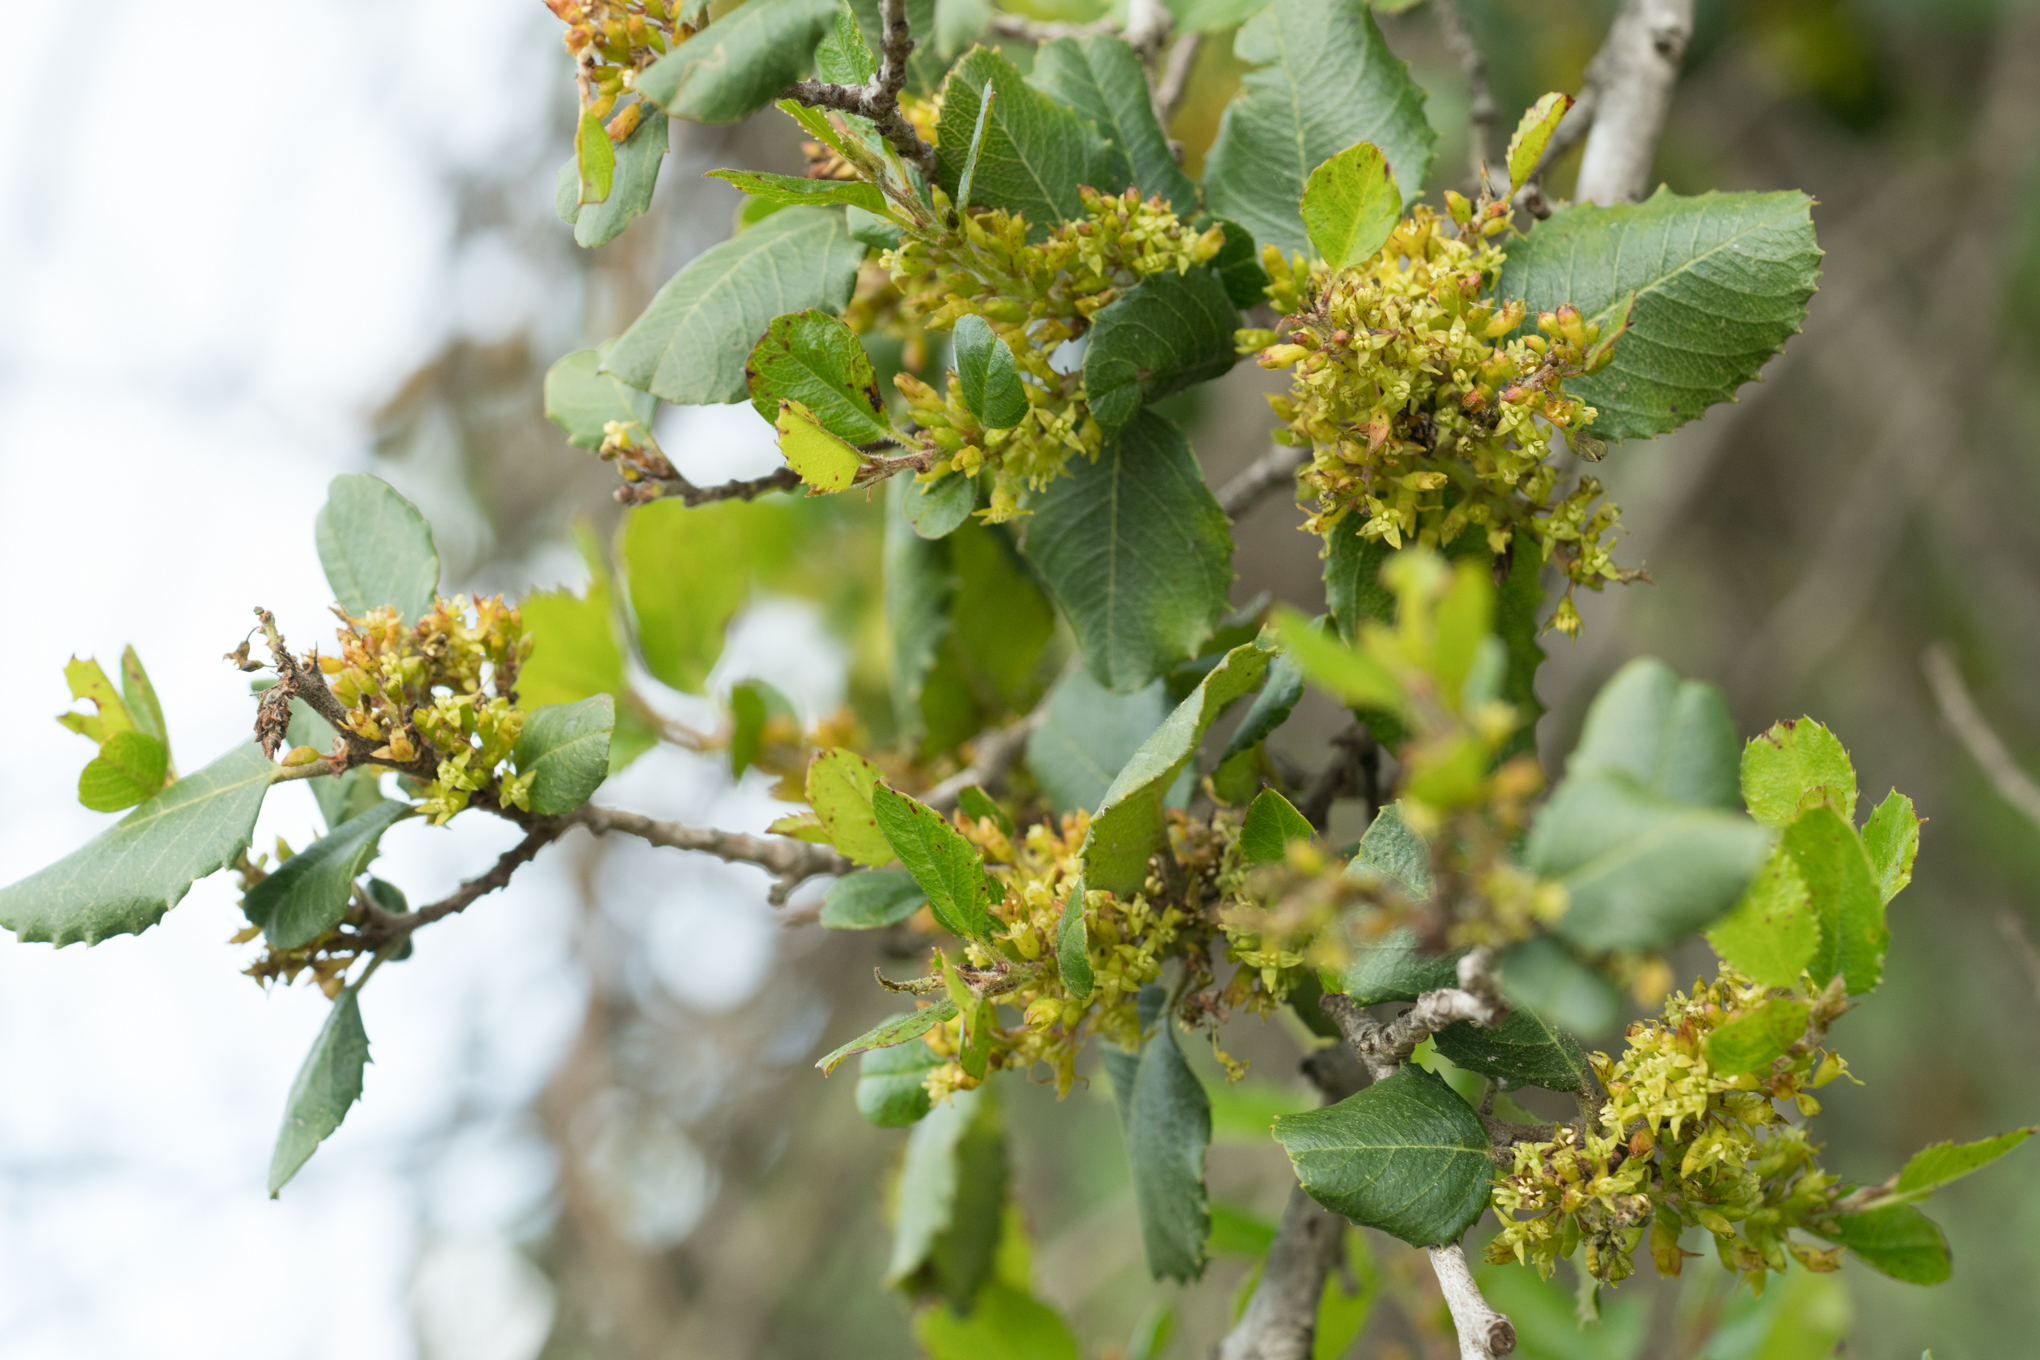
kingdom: Plantae
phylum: Tracheophyta
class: Magnoliopsida
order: Rosales
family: Rhamnaceae
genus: Endotropis
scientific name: Endotropis crocea
